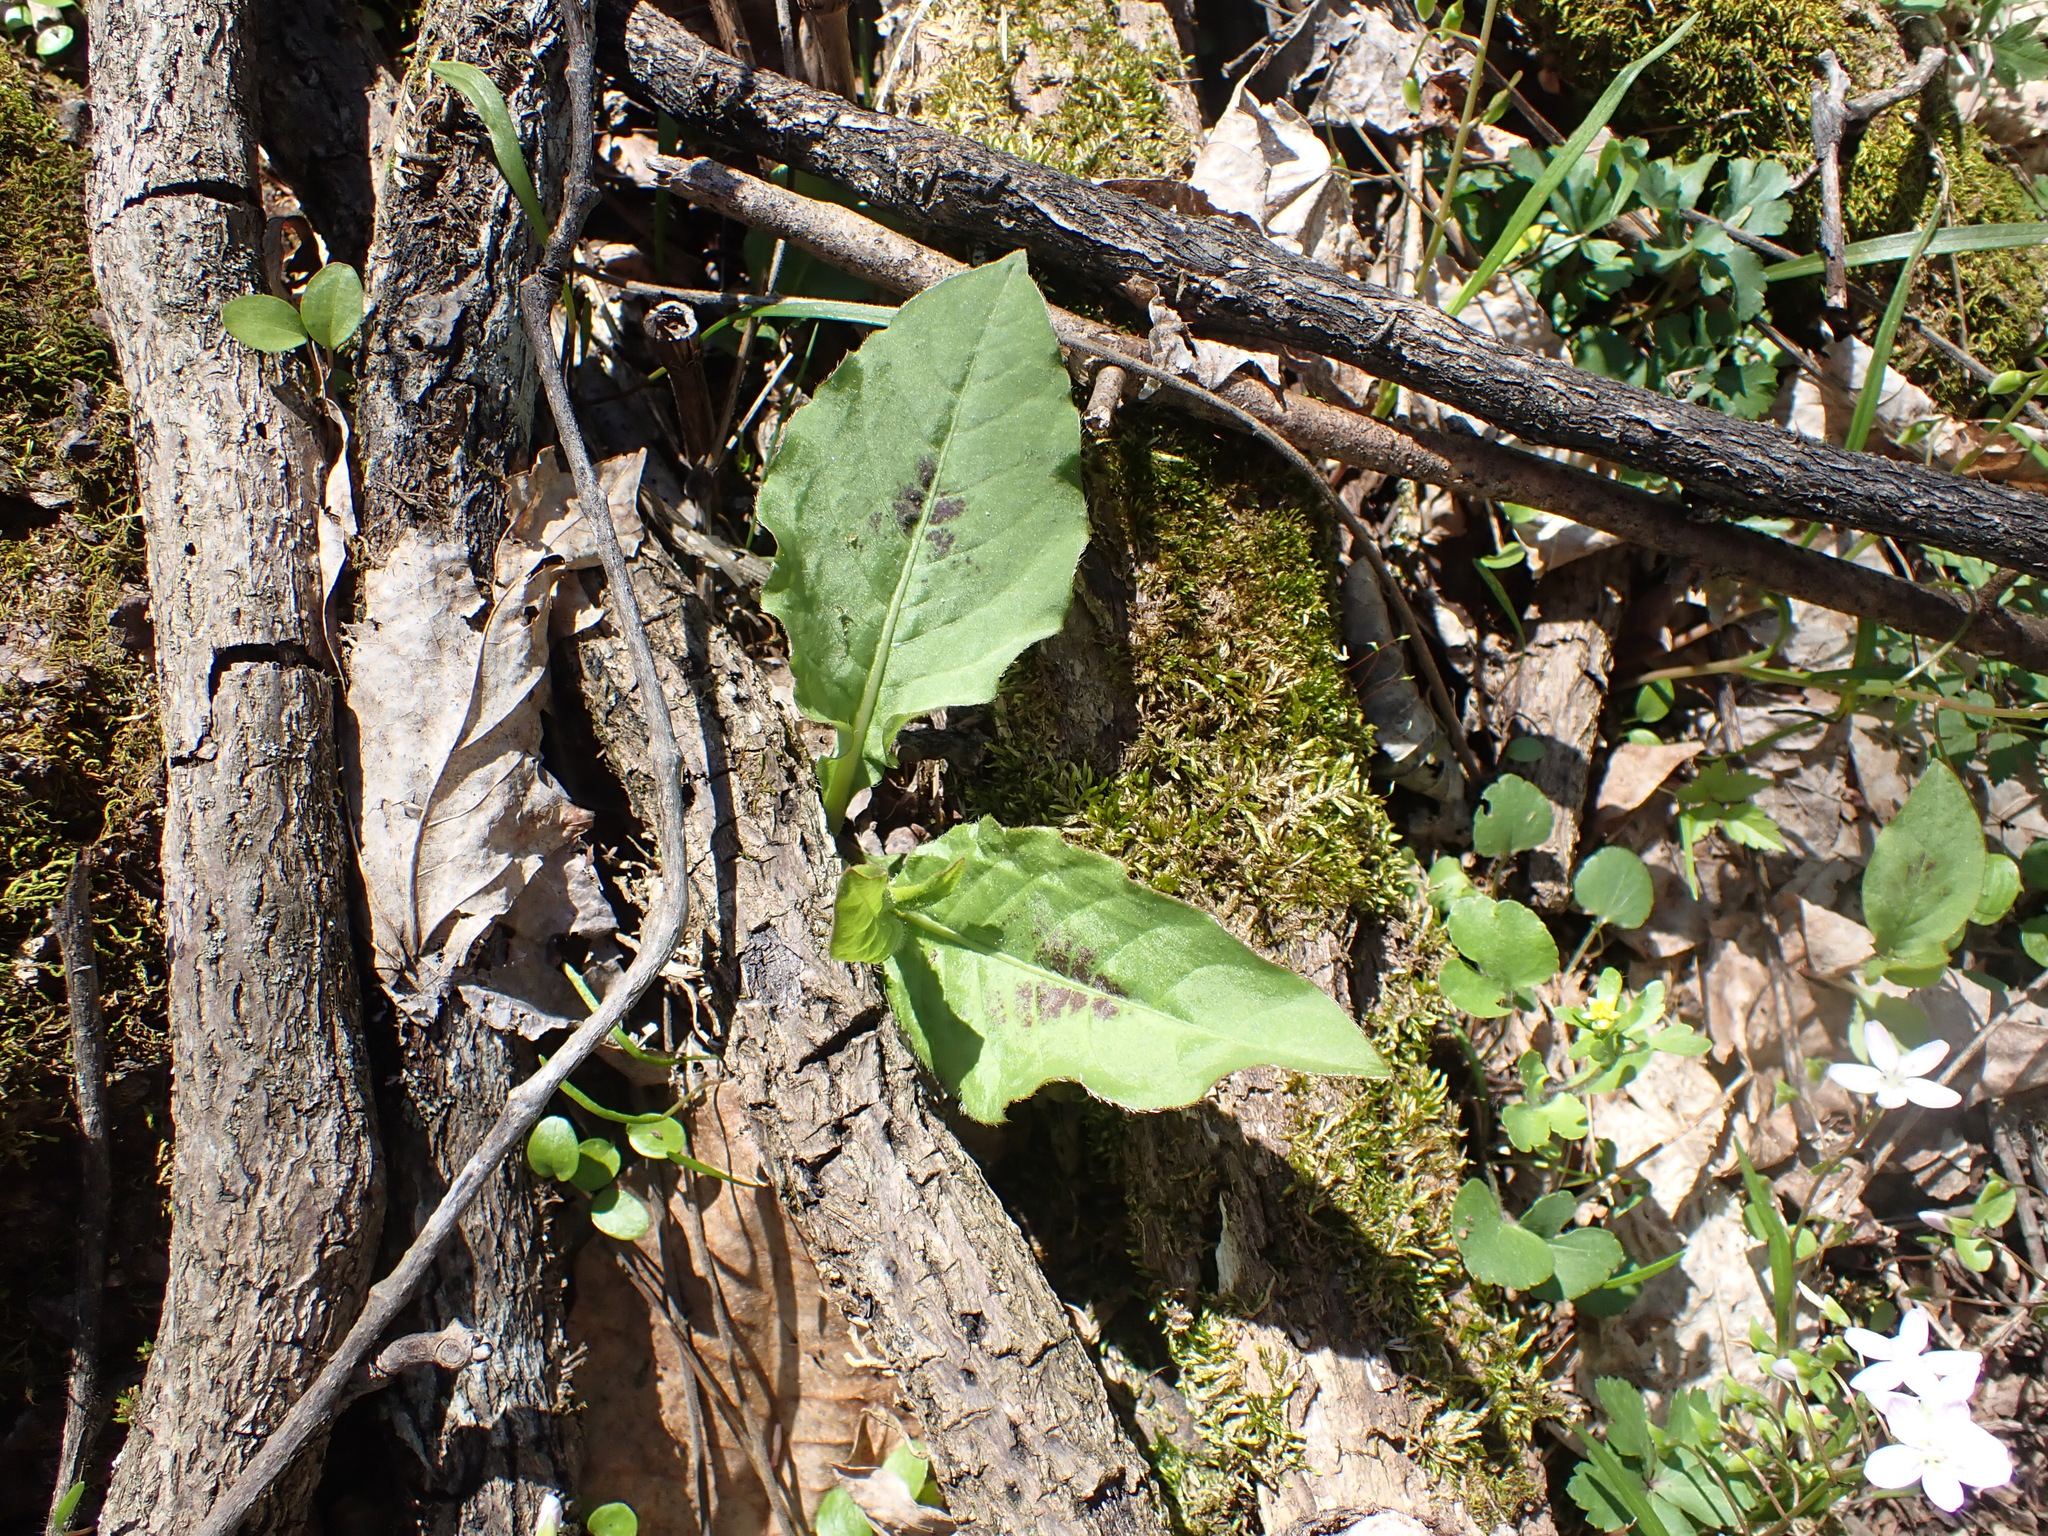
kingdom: Plantae
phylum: Tracheophyta
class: Magnoliopsida
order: Caryophyllales
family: Polygonaceae
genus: Persicaria
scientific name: Persicaria virginiana
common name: Jumpseed
